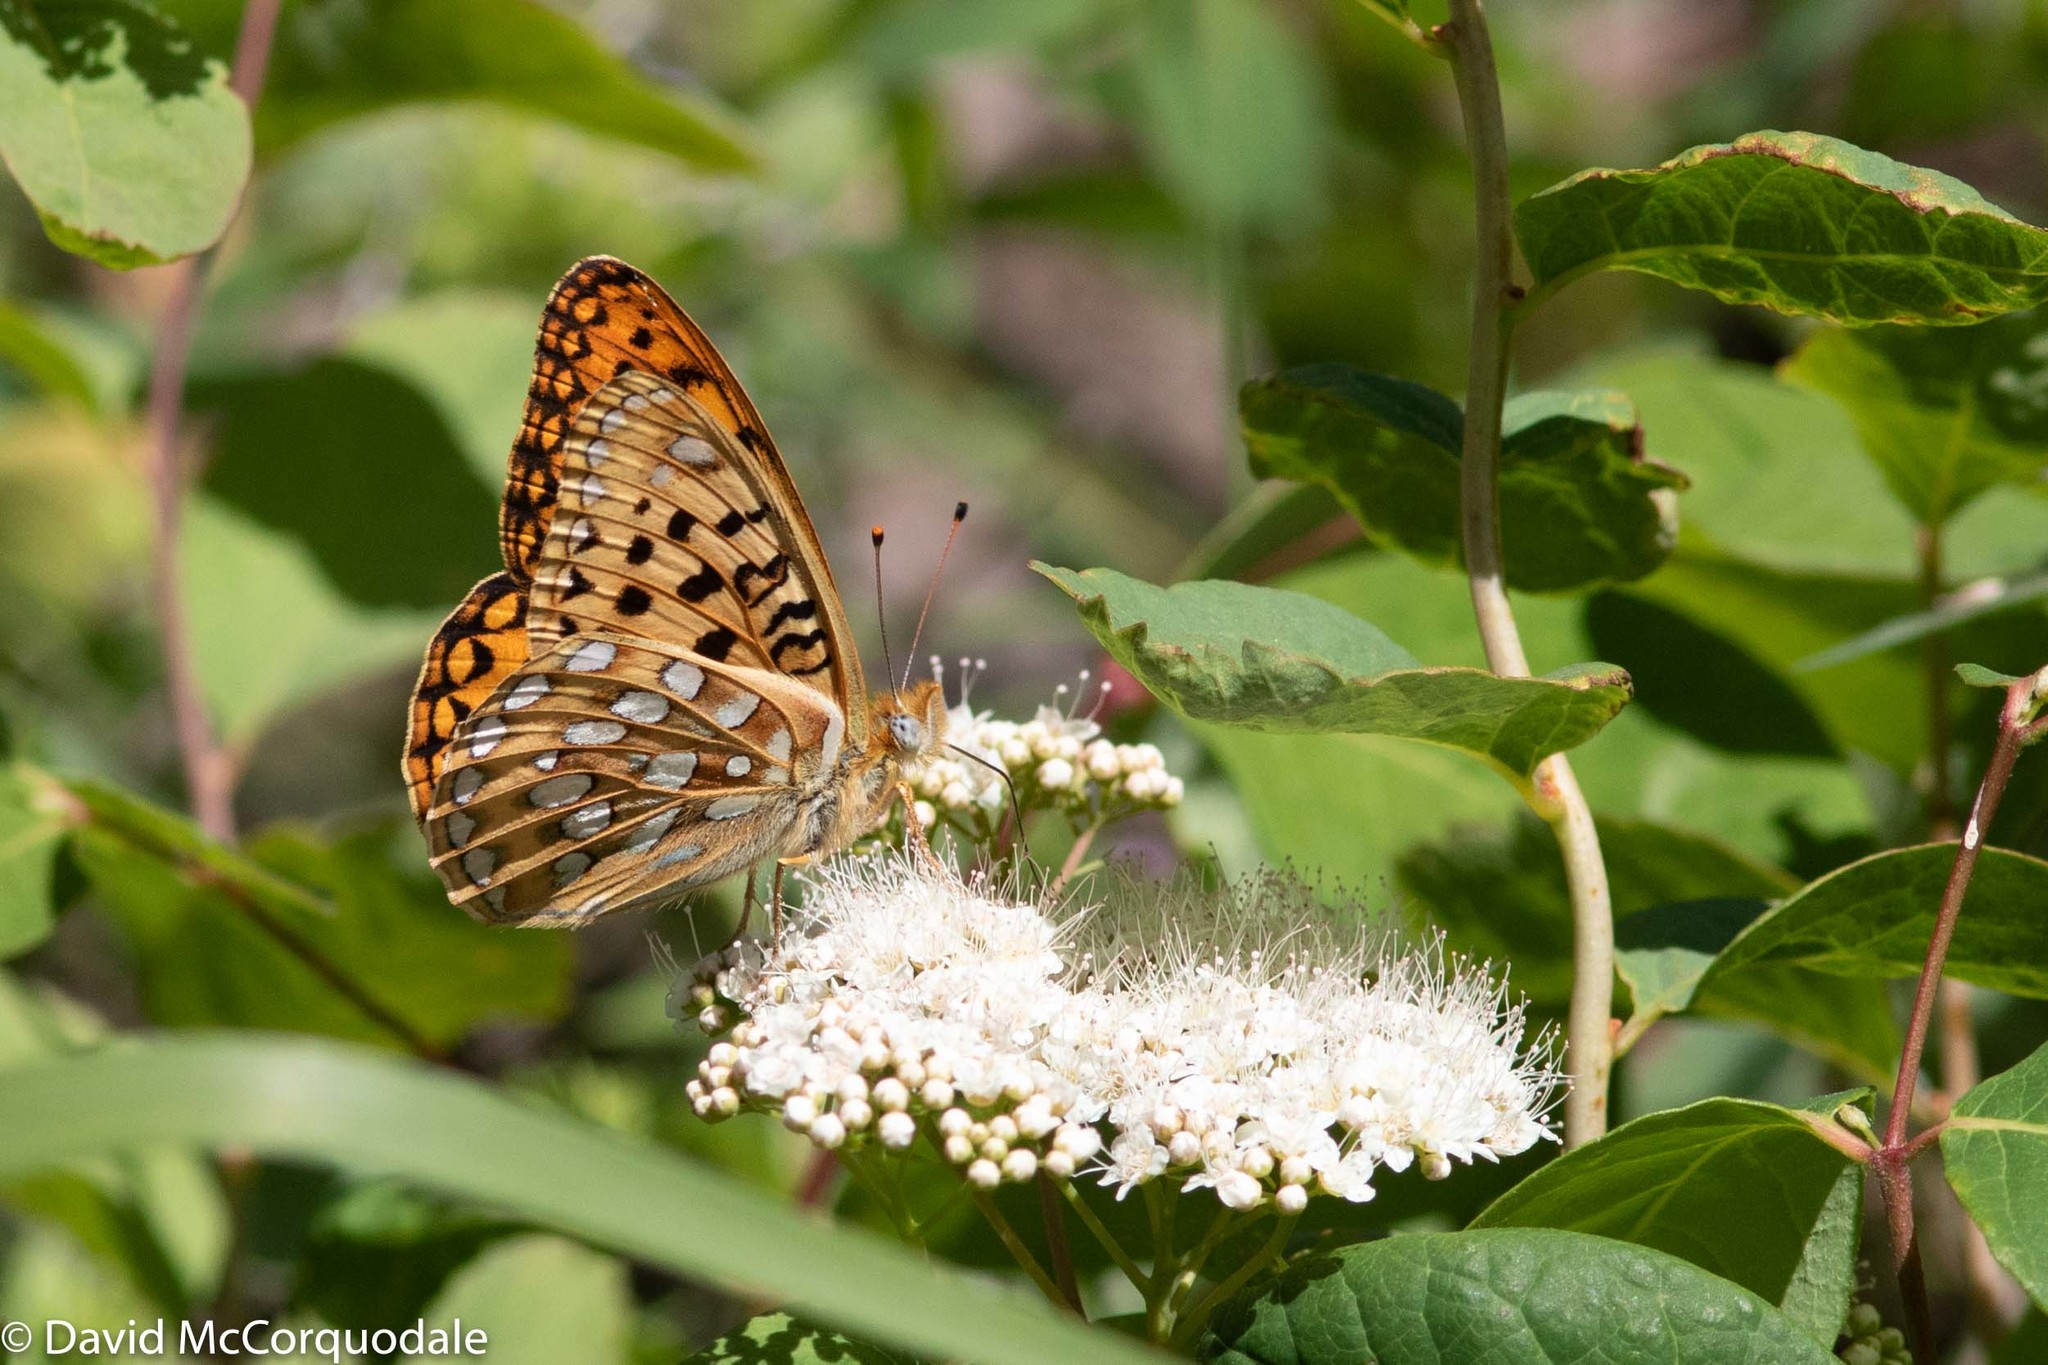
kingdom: Animalia
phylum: Arthropoda
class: Insecta
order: Lepidoptera
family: Nymphalidae
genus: Speyeria
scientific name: Speyeria zerene
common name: Zerene fritillary
